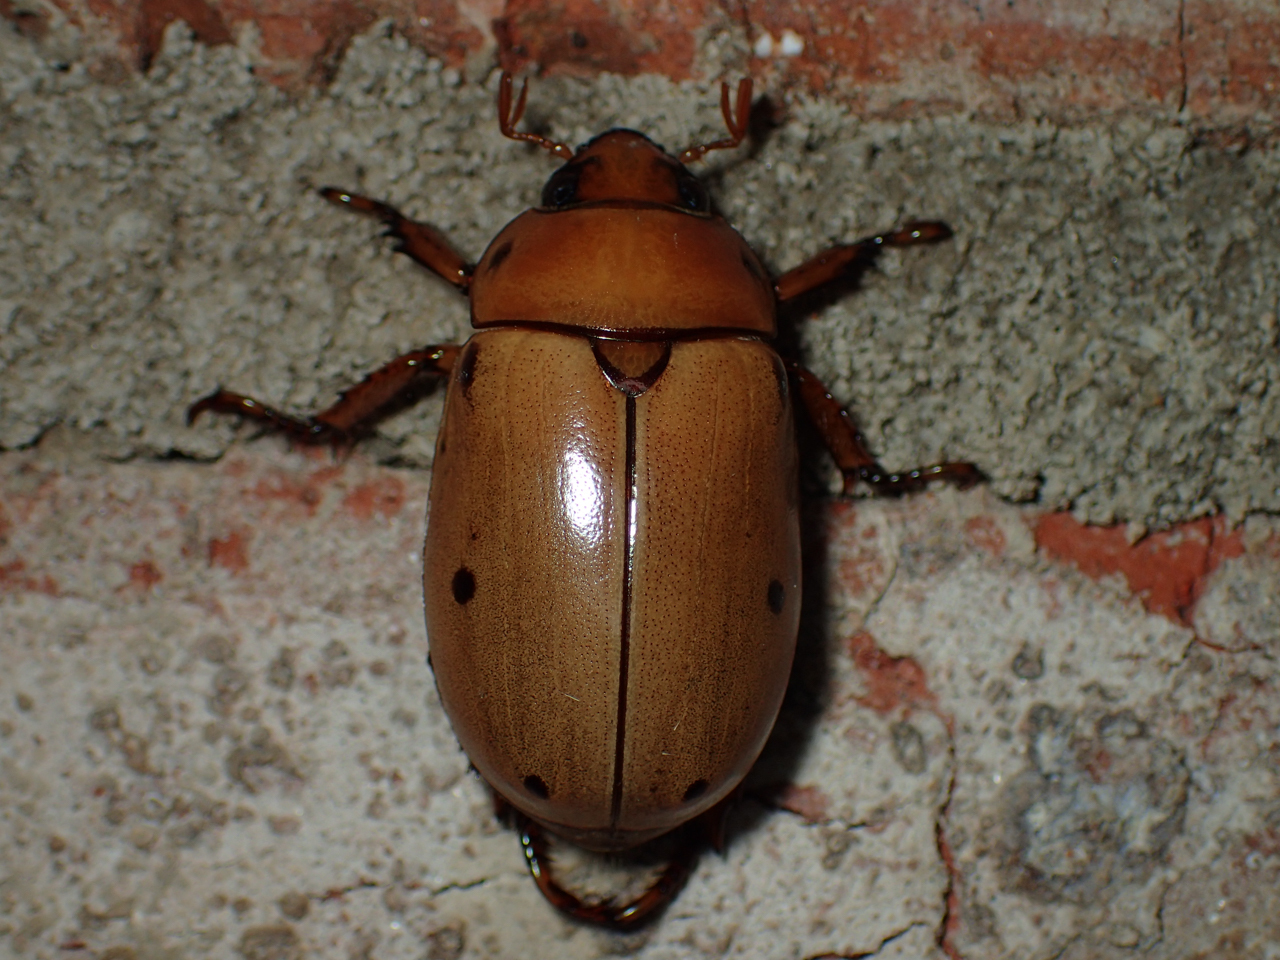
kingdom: Animalia
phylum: Arthropoda
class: Insecta
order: Coleoptera
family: Scarabaeidae
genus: Pelidnota
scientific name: Pelidnota punctata
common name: Grapevine beetle
